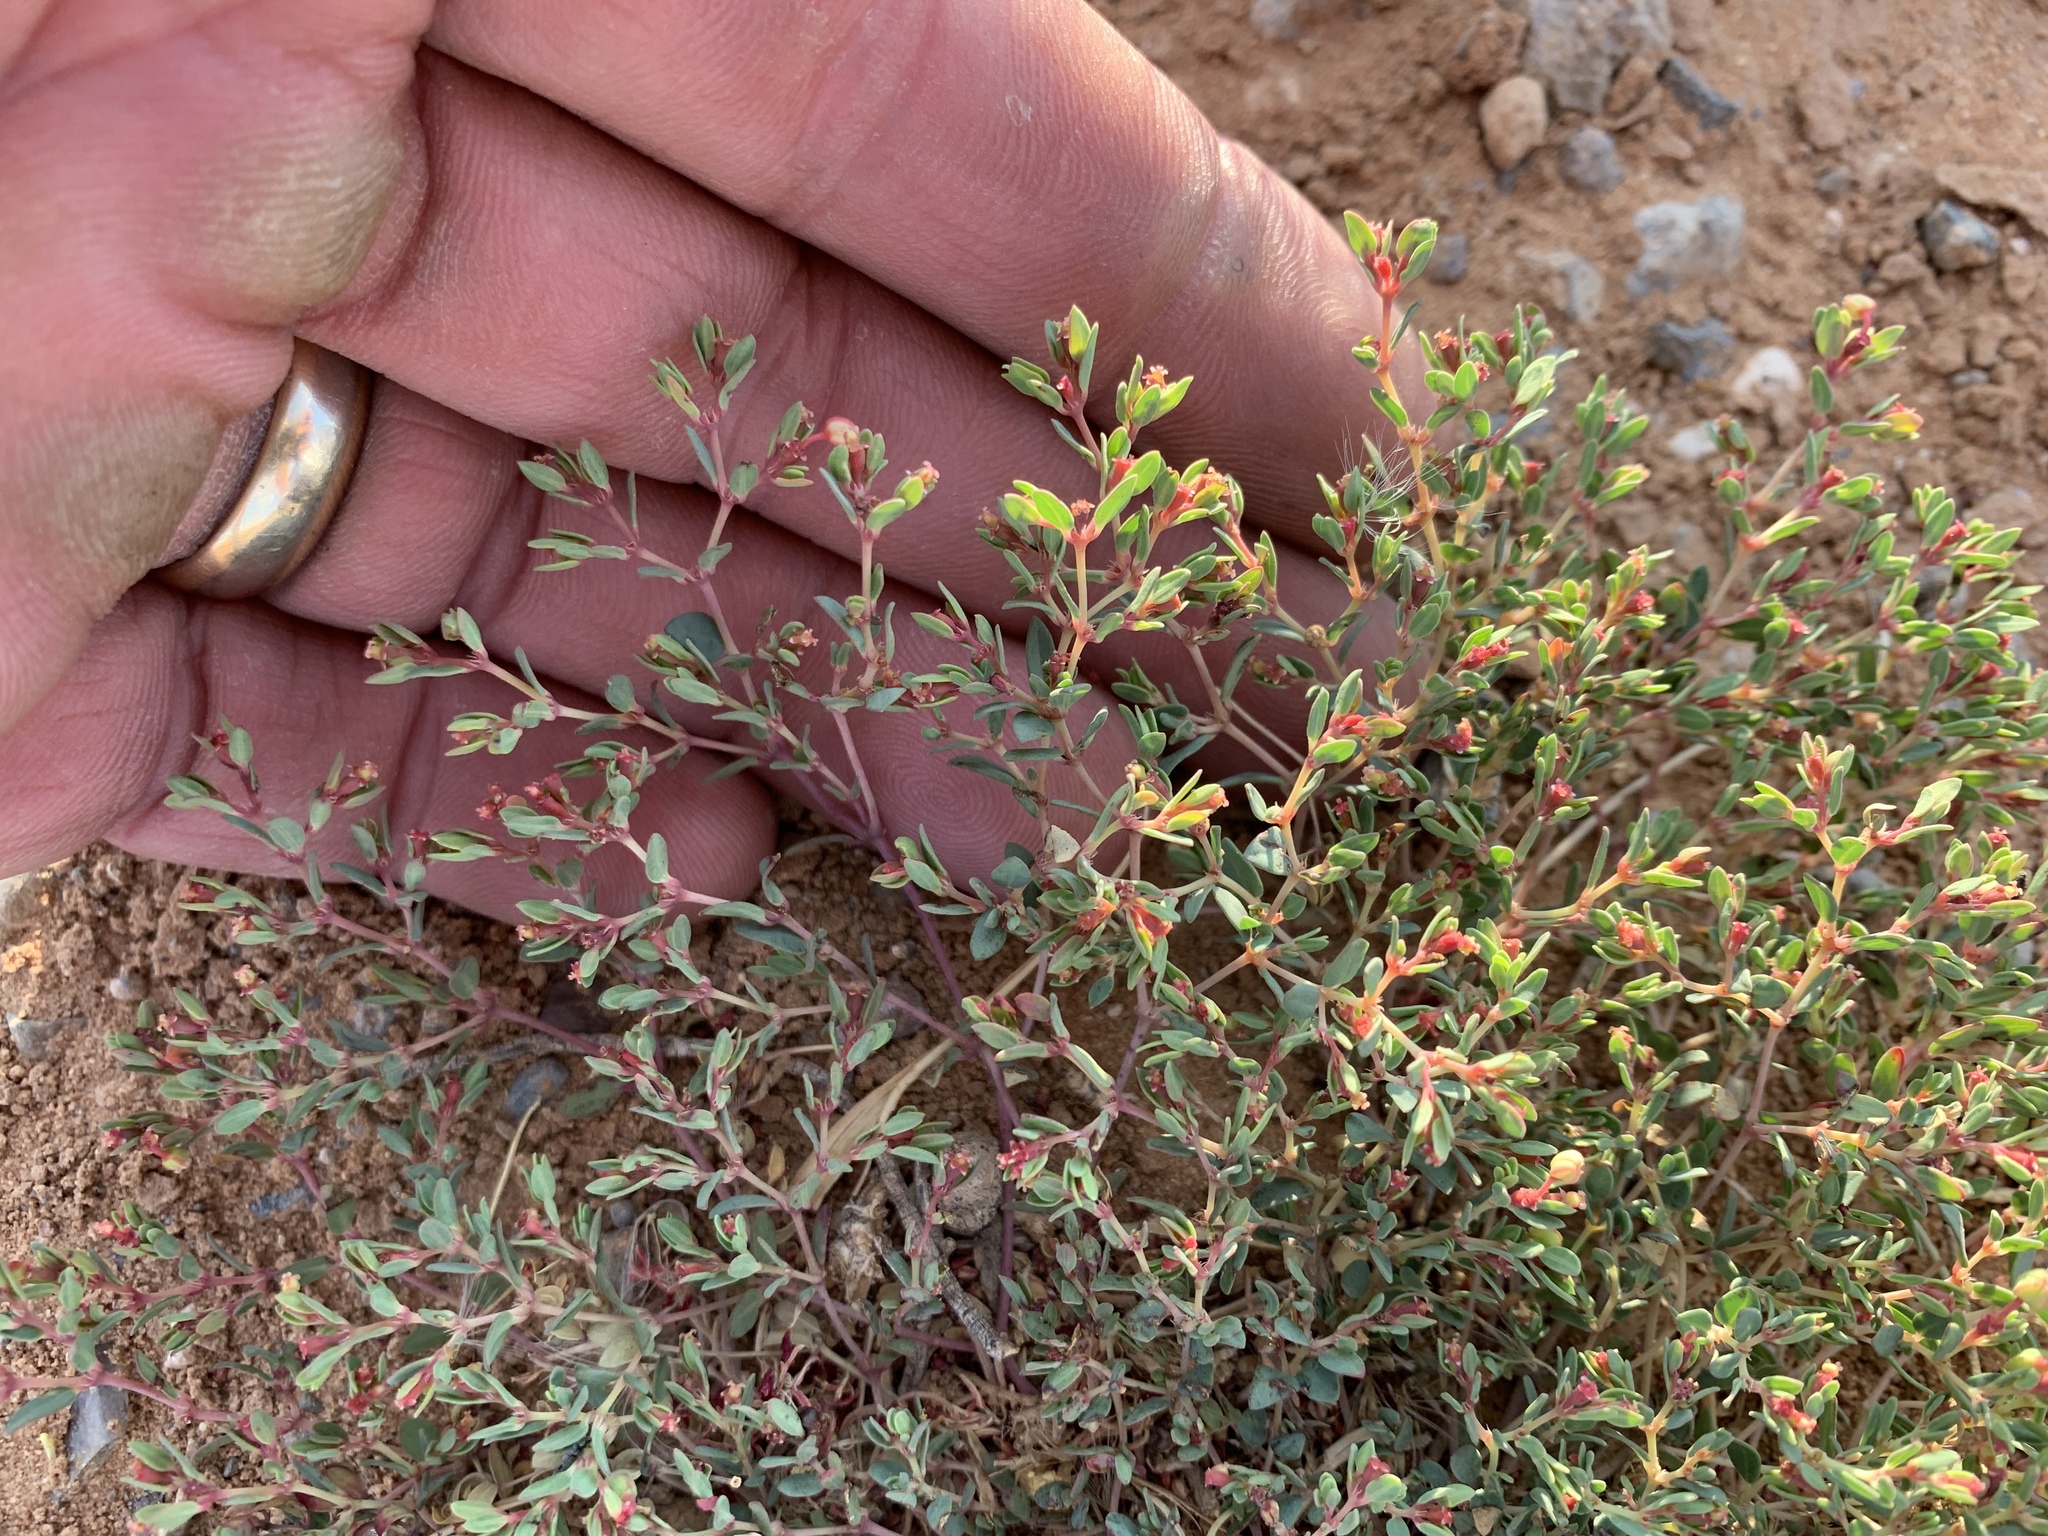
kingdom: Plantae
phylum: Tracheophyta
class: Magnoliopsida
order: Malpighiales
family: Euphorbiaceae
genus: Euphorbia
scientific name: Euphorbia fendleri
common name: Fendler's euphorbia
